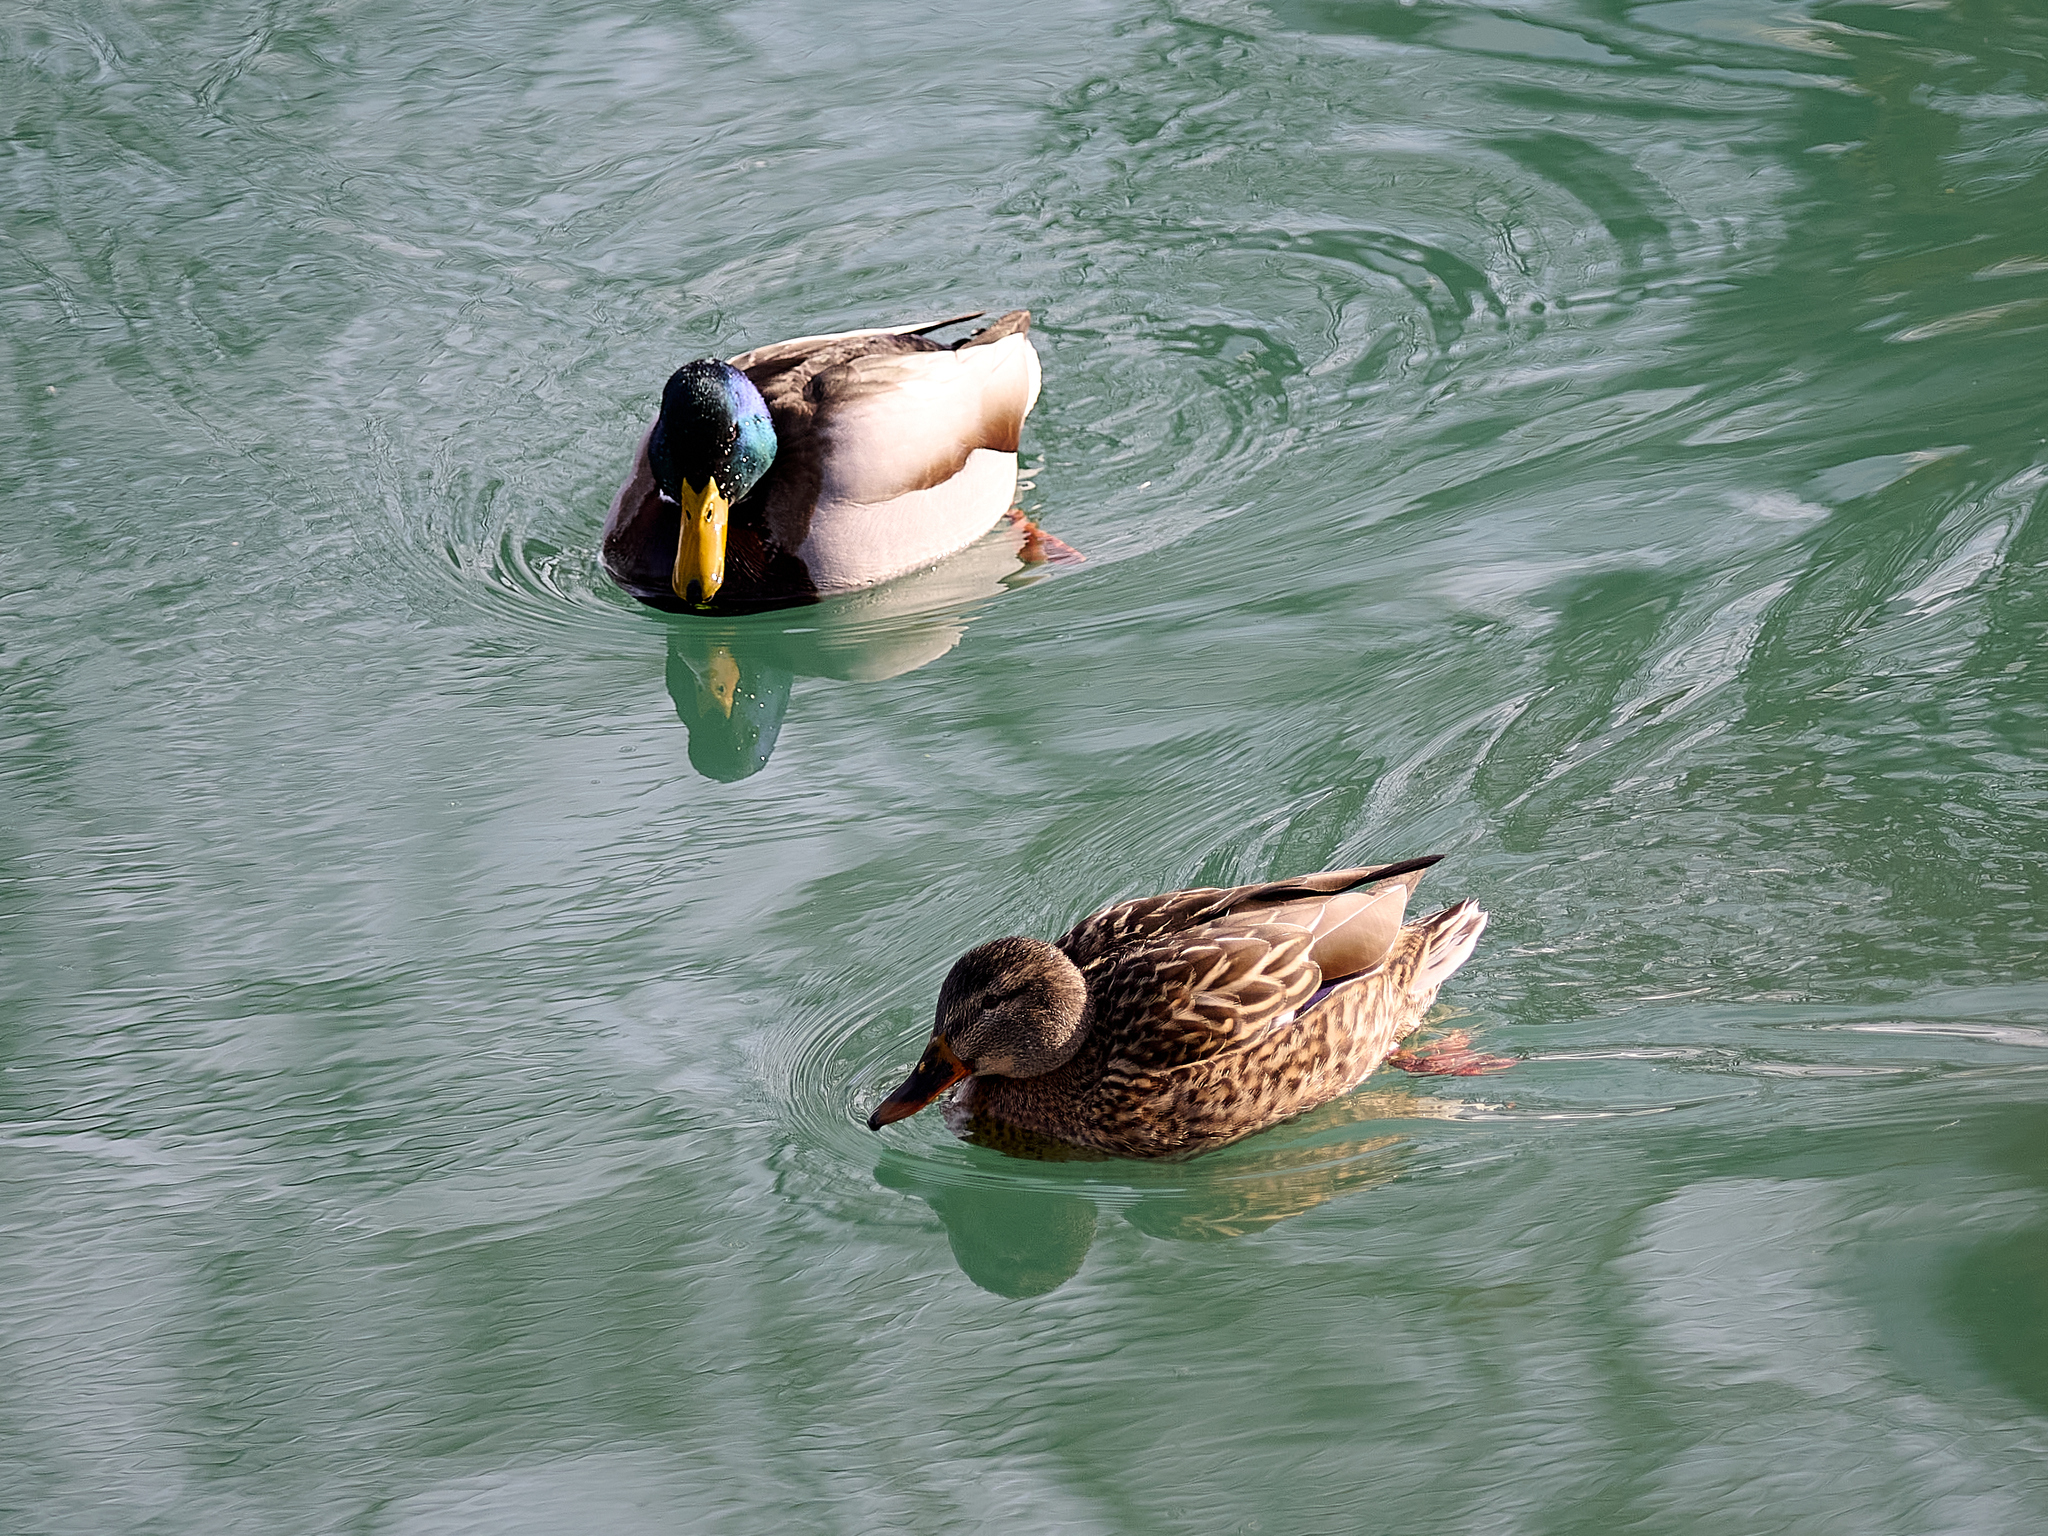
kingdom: Animalia
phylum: Chordata
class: Aves
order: Anseriformes
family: Anatidae
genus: Anas
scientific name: Anas platyrhynchos
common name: Mallard
